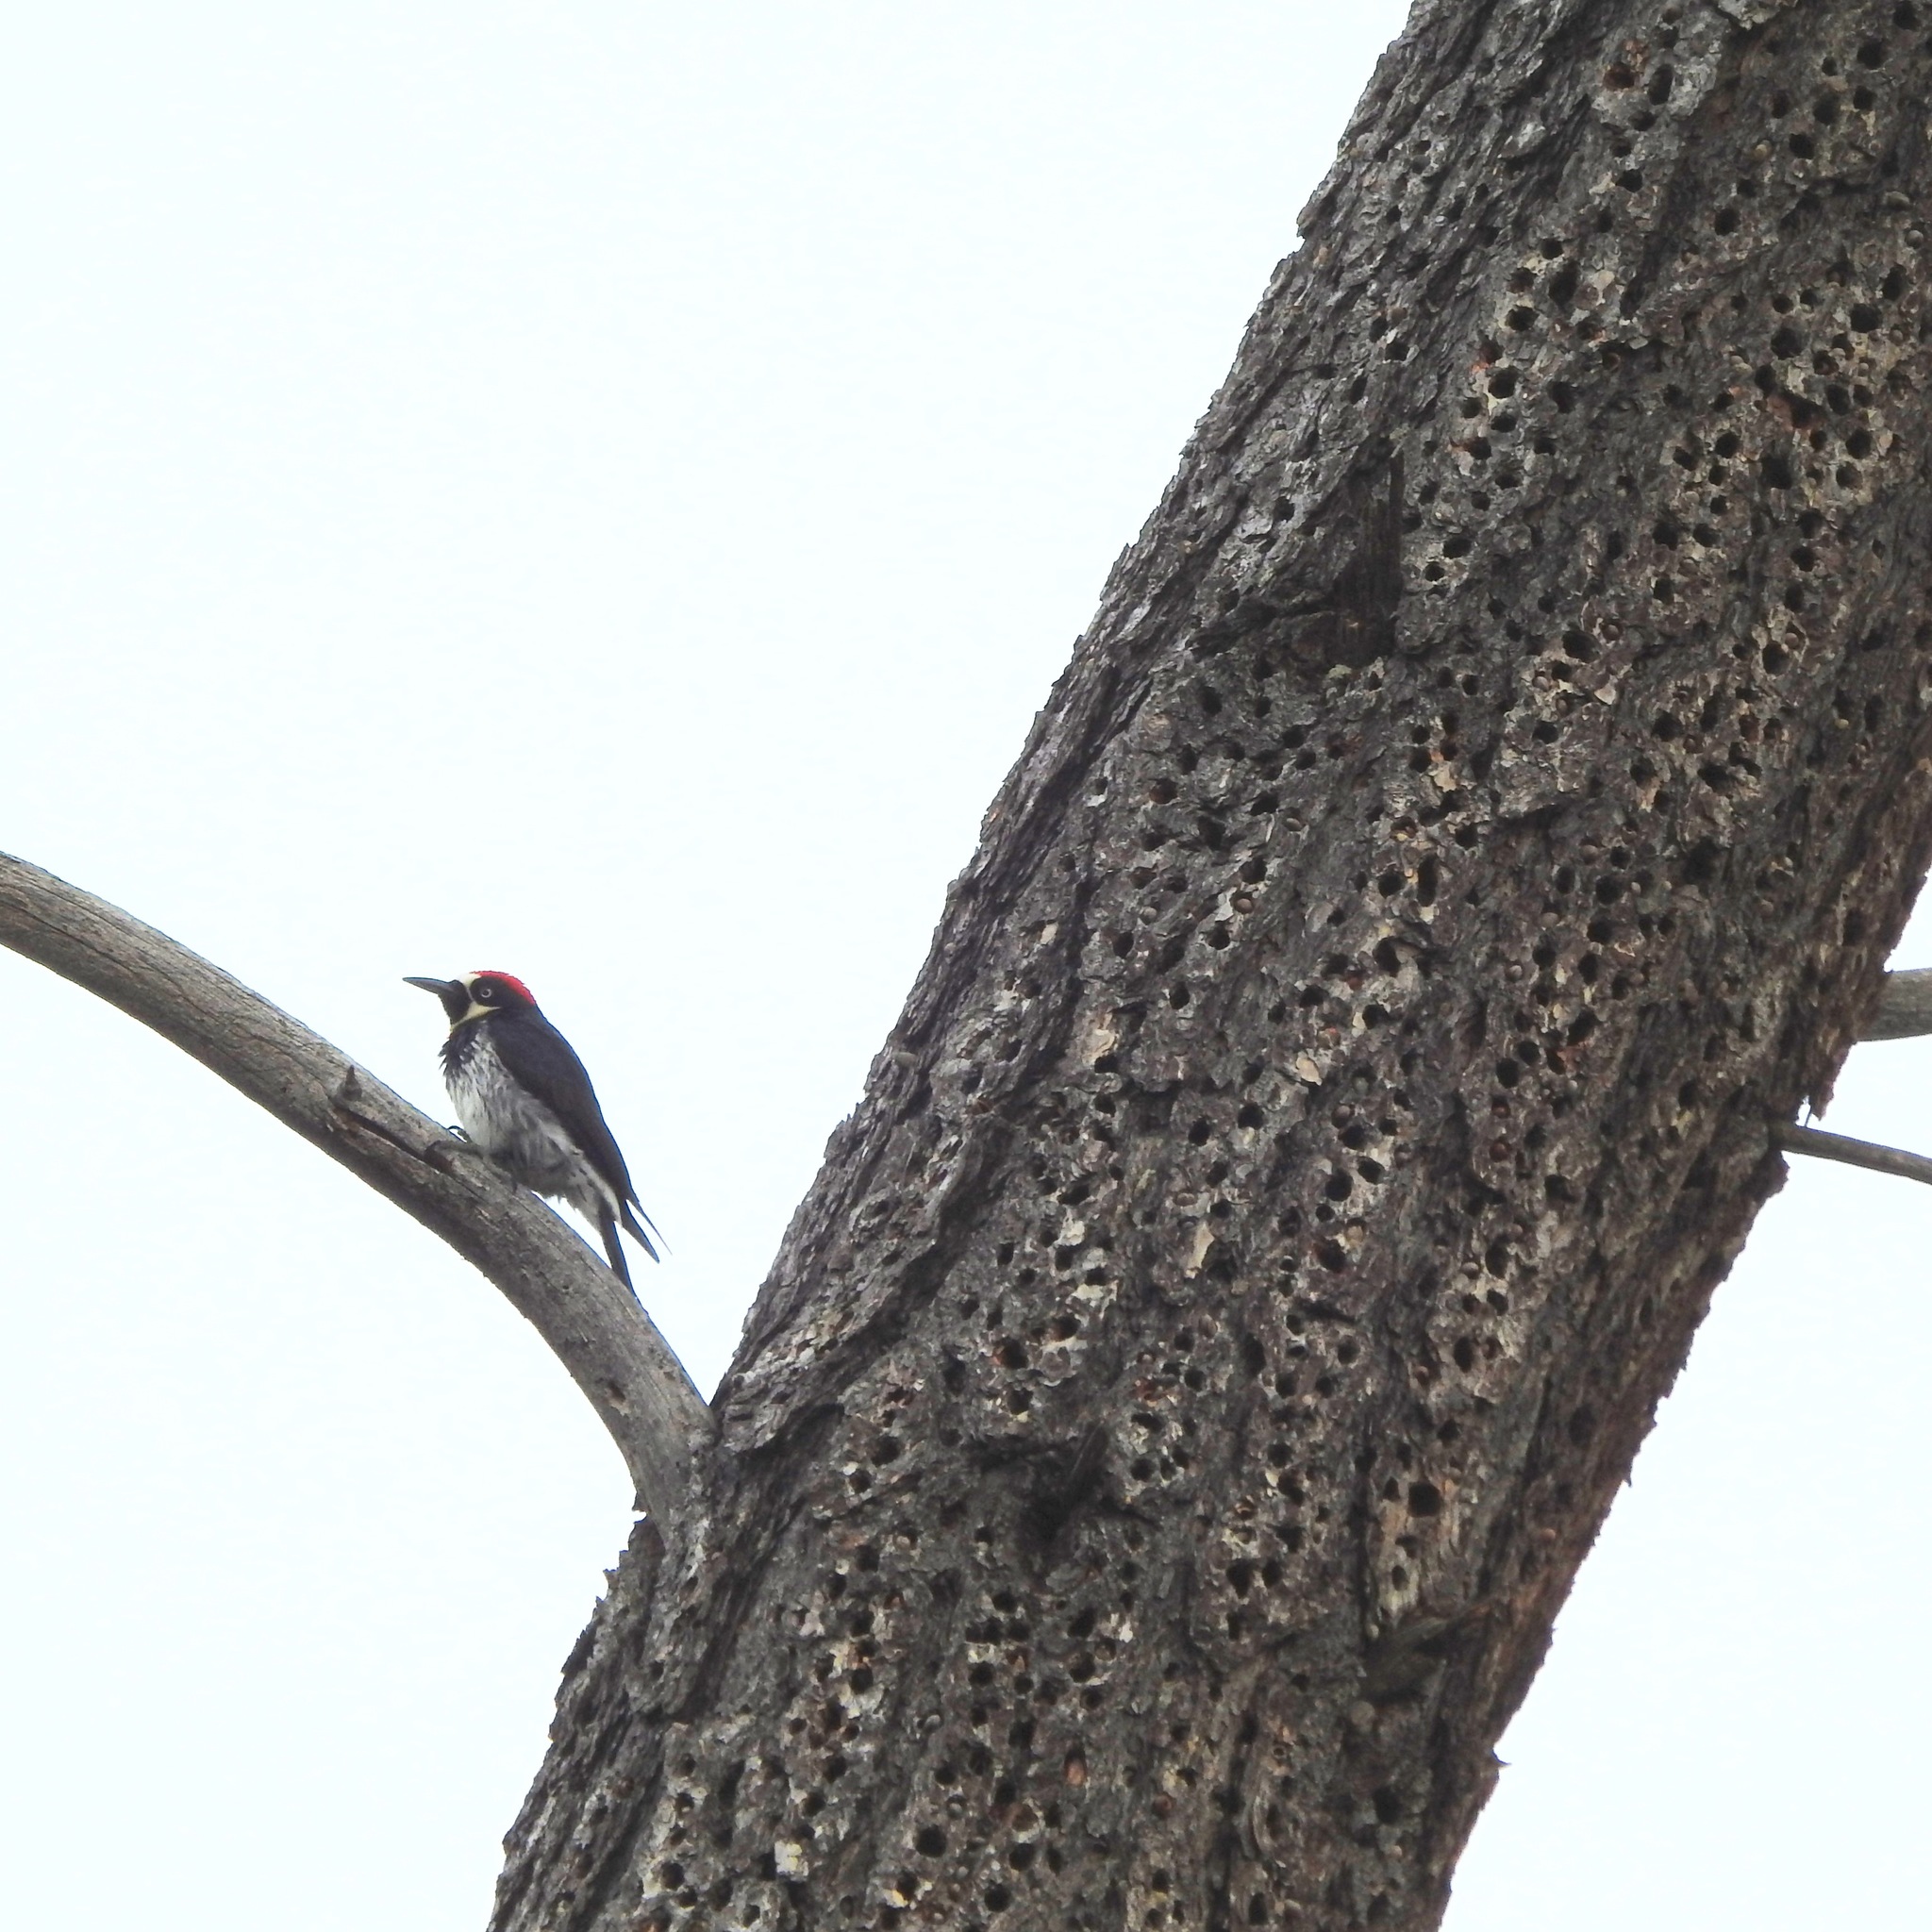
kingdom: Animalia
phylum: Chordata
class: Aves
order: Piciformes
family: Picidae
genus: Melanerpes
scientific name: Melanerpes formicivorus
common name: Acorn woodpecker
